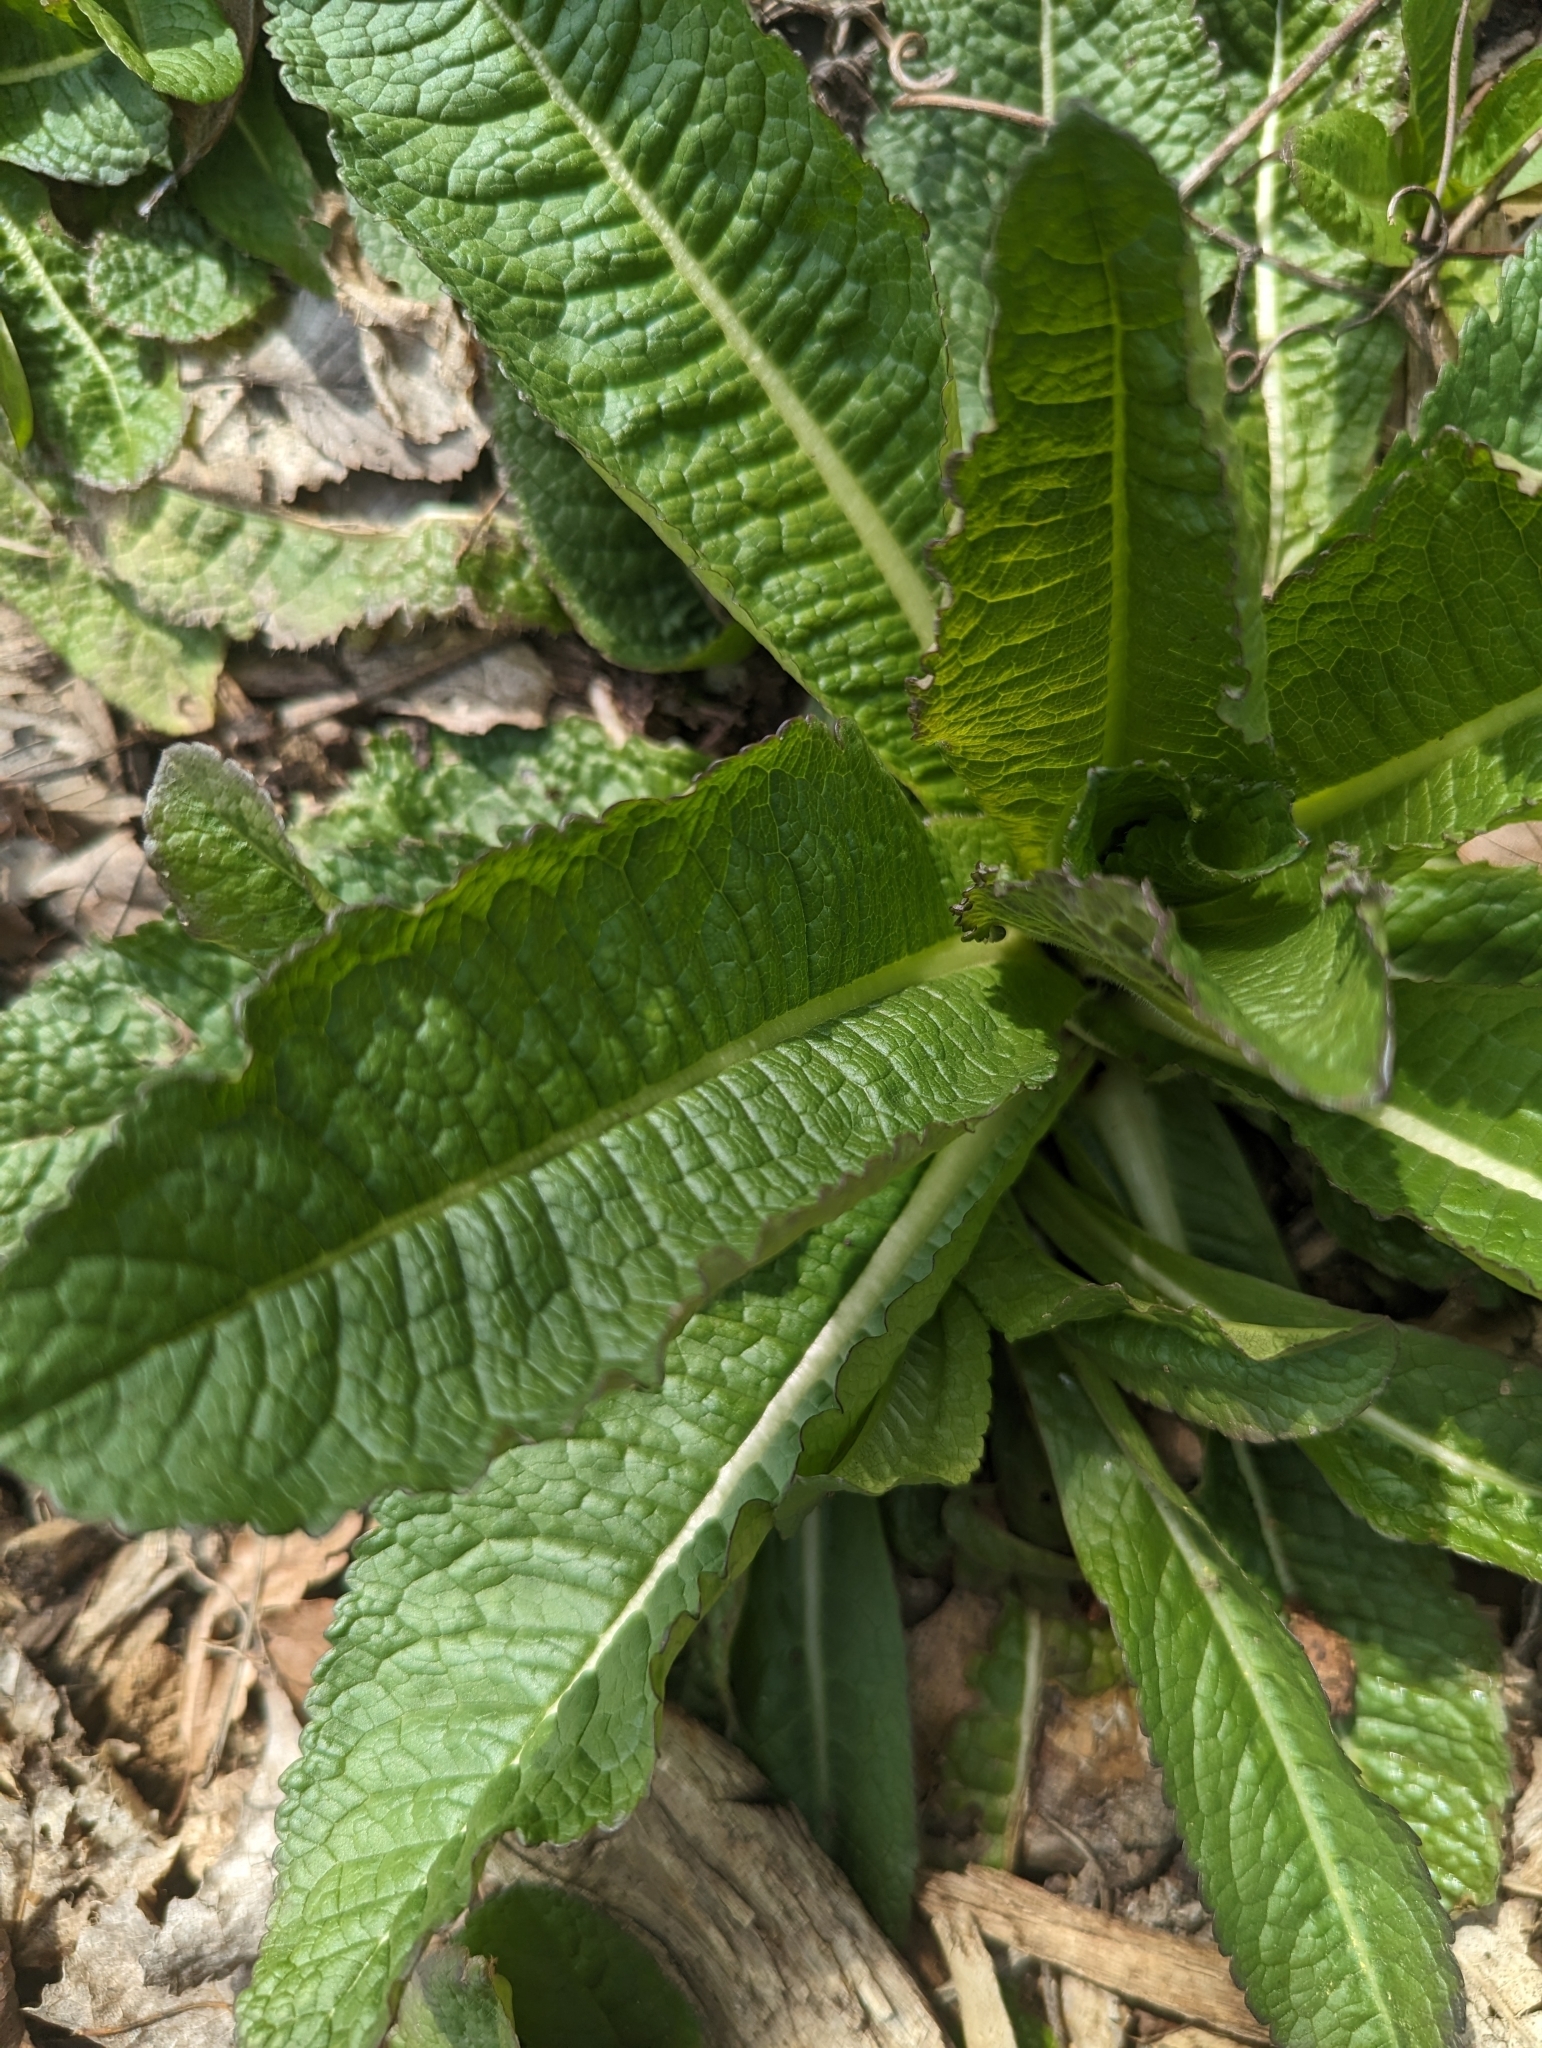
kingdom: Plantae
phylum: Tracheophyta
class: Magnoliopsida
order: Dipsacales
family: Caprifoliaceae
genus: Dipsacus
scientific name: Dipsacus laciniatus
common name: Cut-leaved teasel
